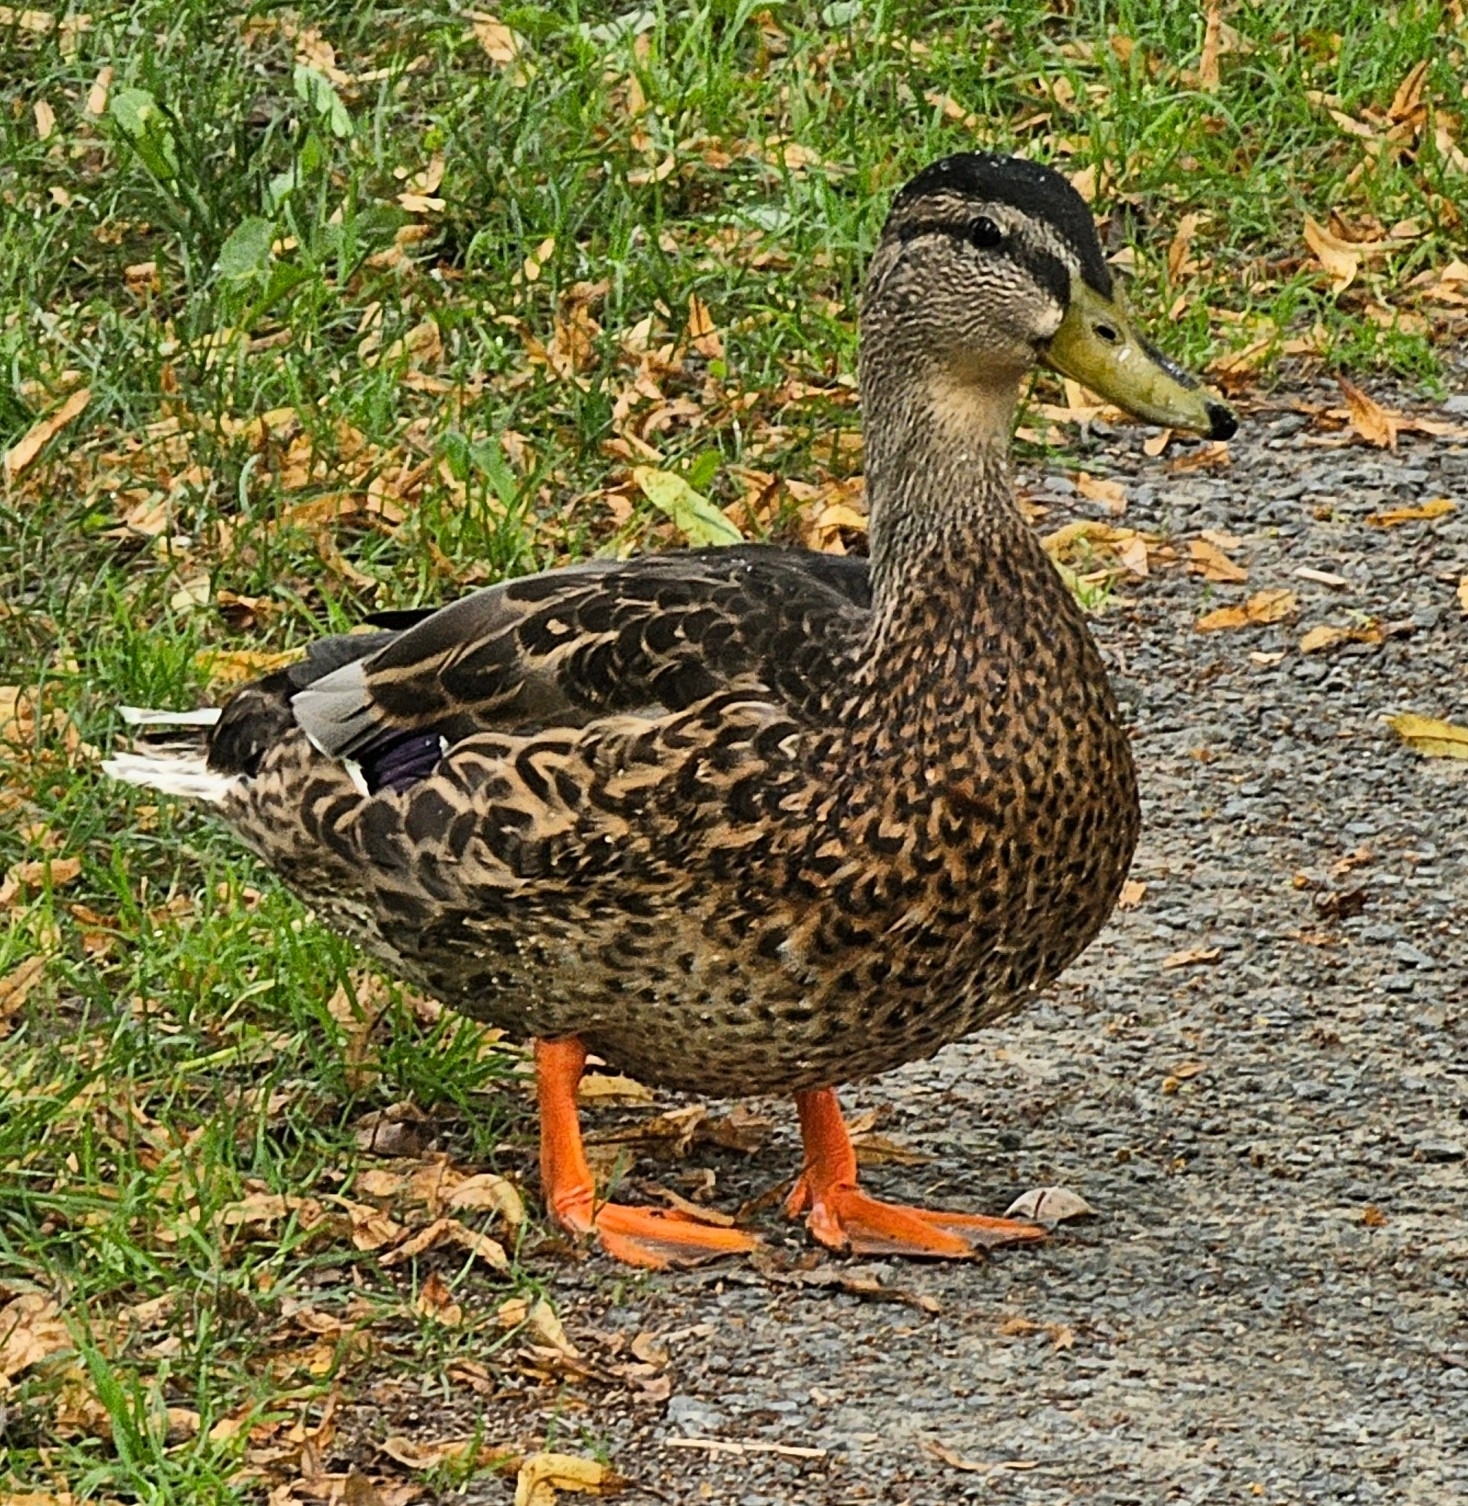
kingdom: Animalia
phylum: Chordata
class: Aves
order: Anseriformes
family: Anatidae
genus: Anas
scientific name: Anas platyrhynchos
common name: Mallard
